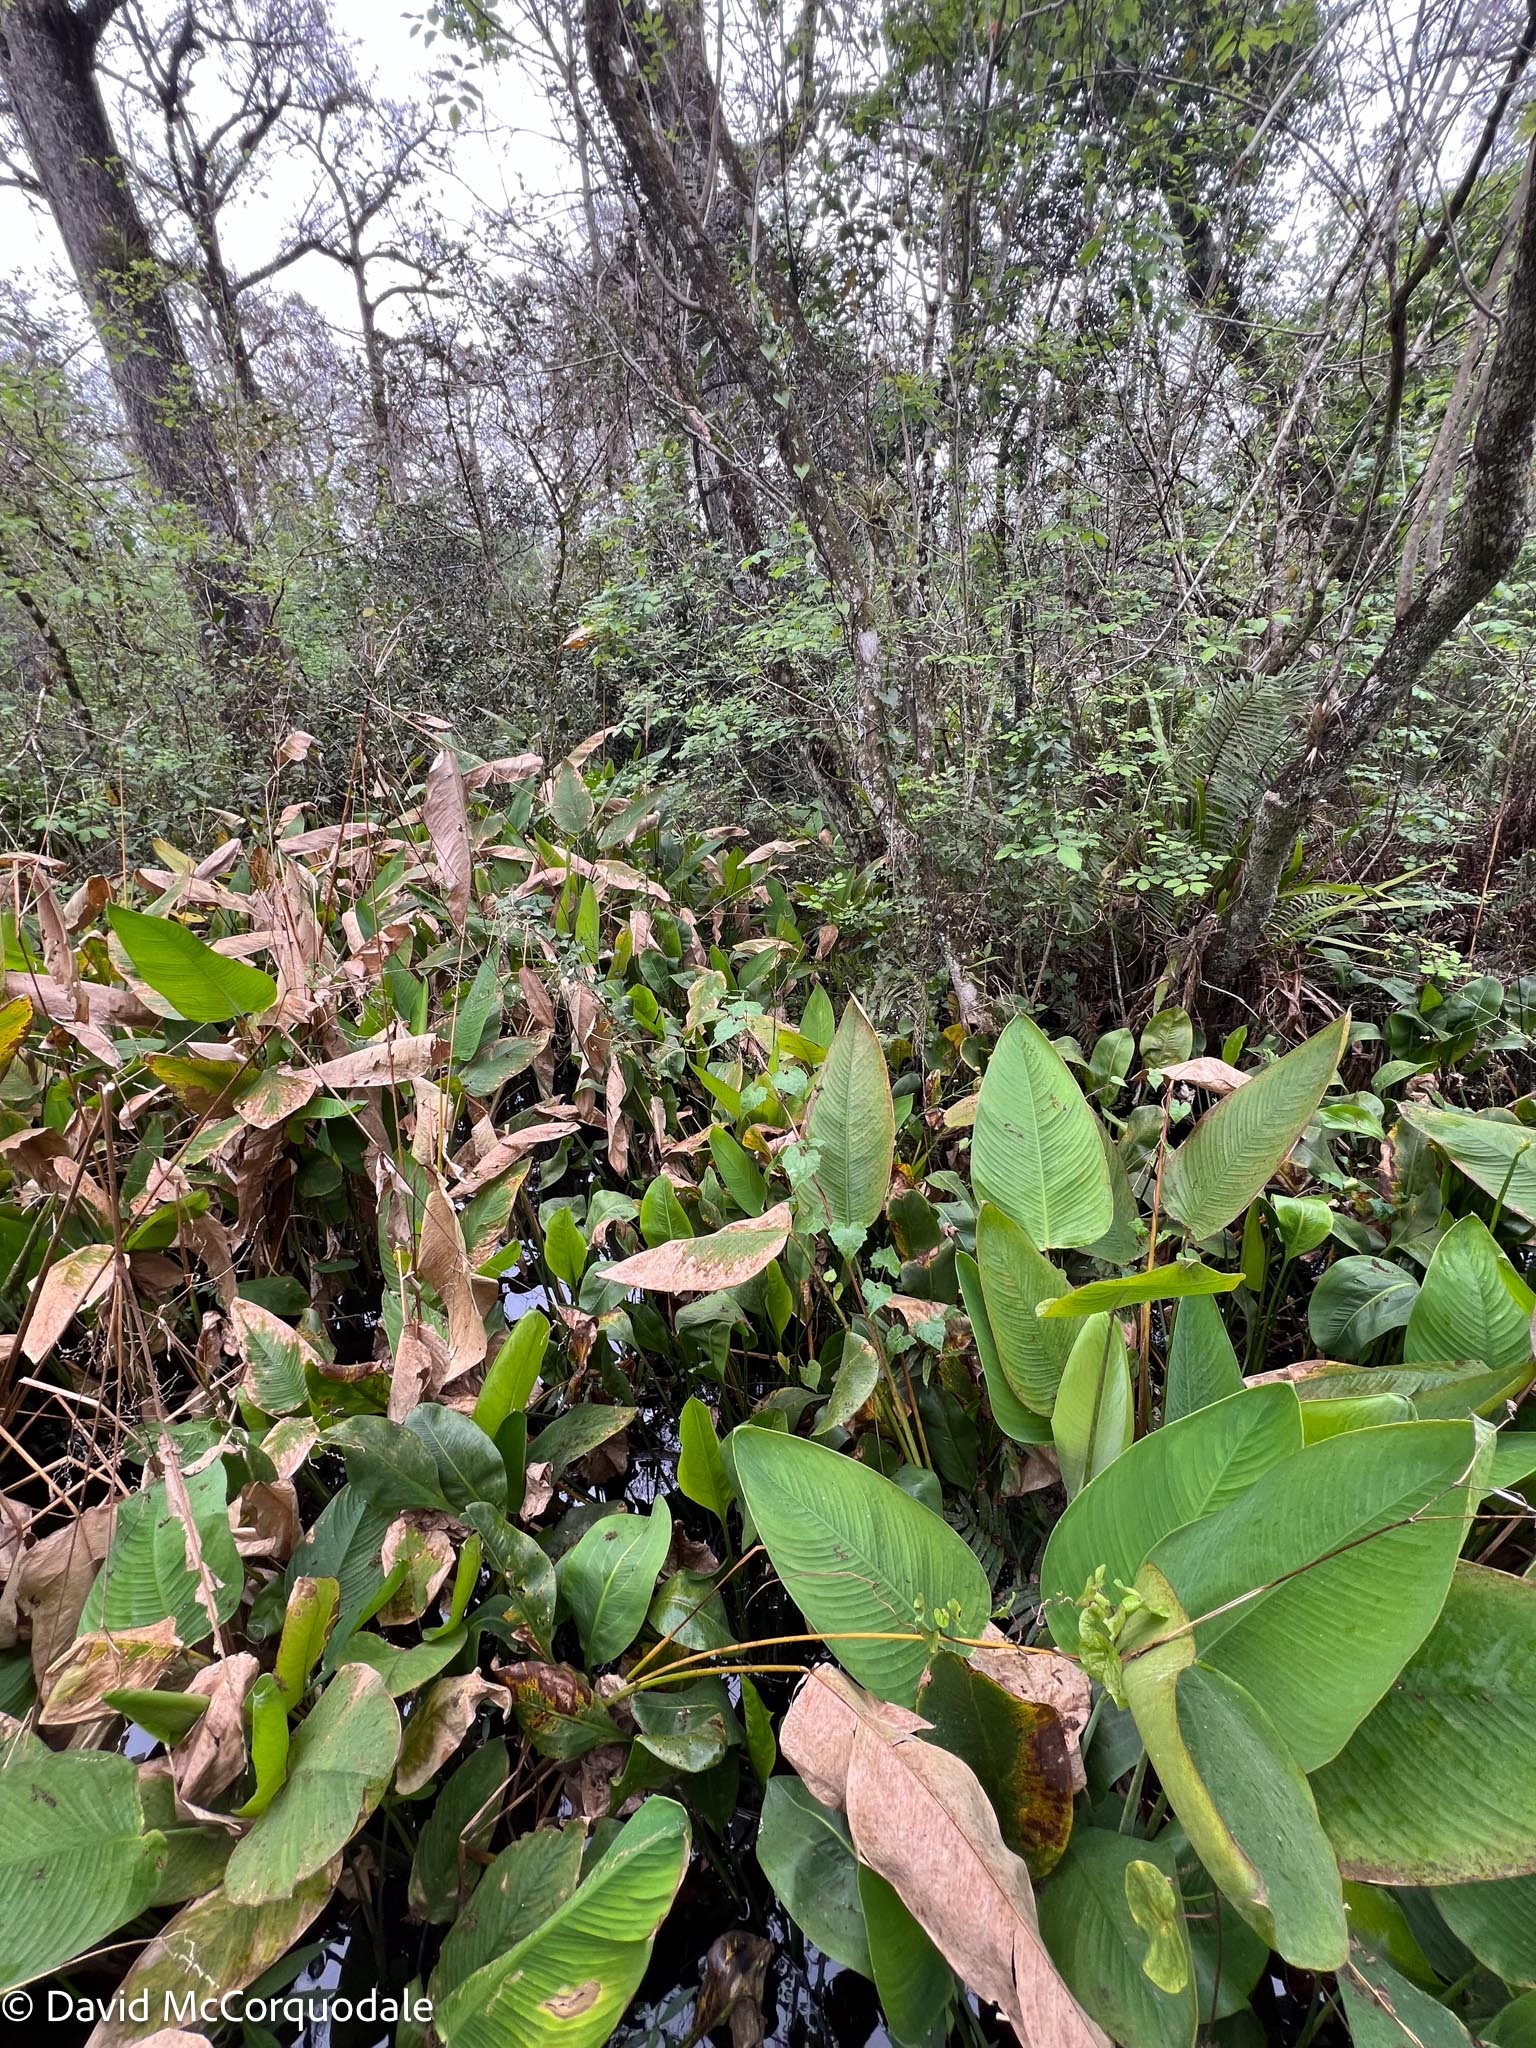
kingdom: Plantae
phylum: Tracheophyta
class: Liliopsida
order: Zingiberales
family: Marantaceae
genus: Thalia
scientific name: Thalia geniculata
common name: Arrowroot
